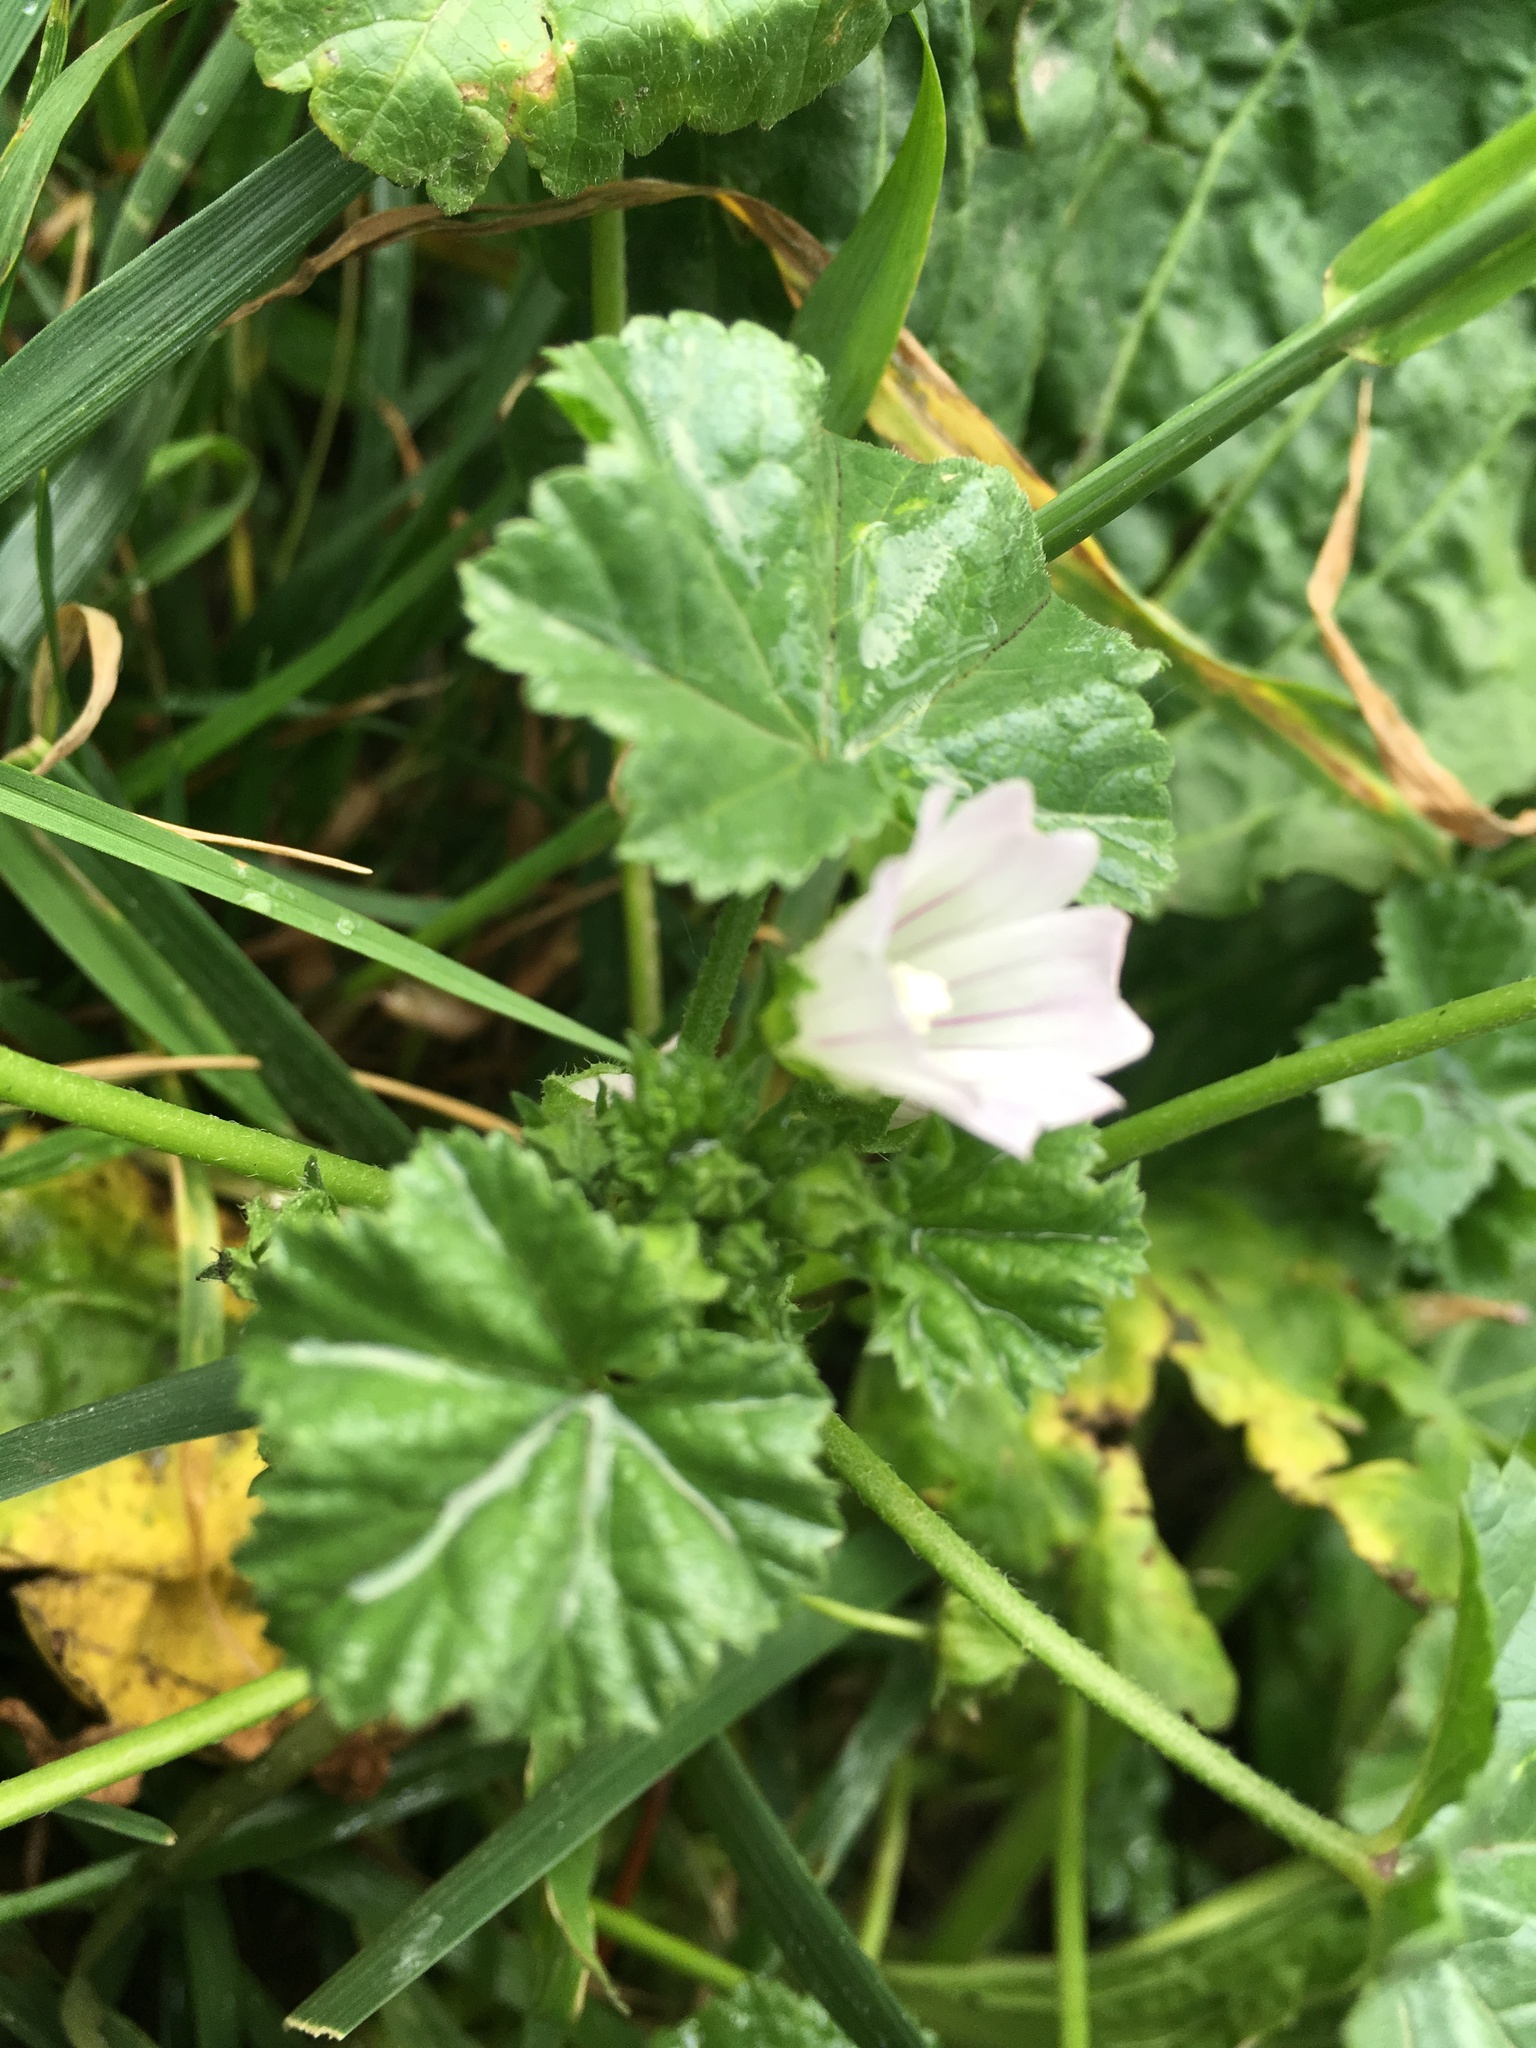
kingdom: Plantae
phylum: Tracheophyta
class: Magnoliopsida
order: Malvales
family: Malvaceae
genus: Malva
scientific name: Malva neglecta
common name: Common mallow
